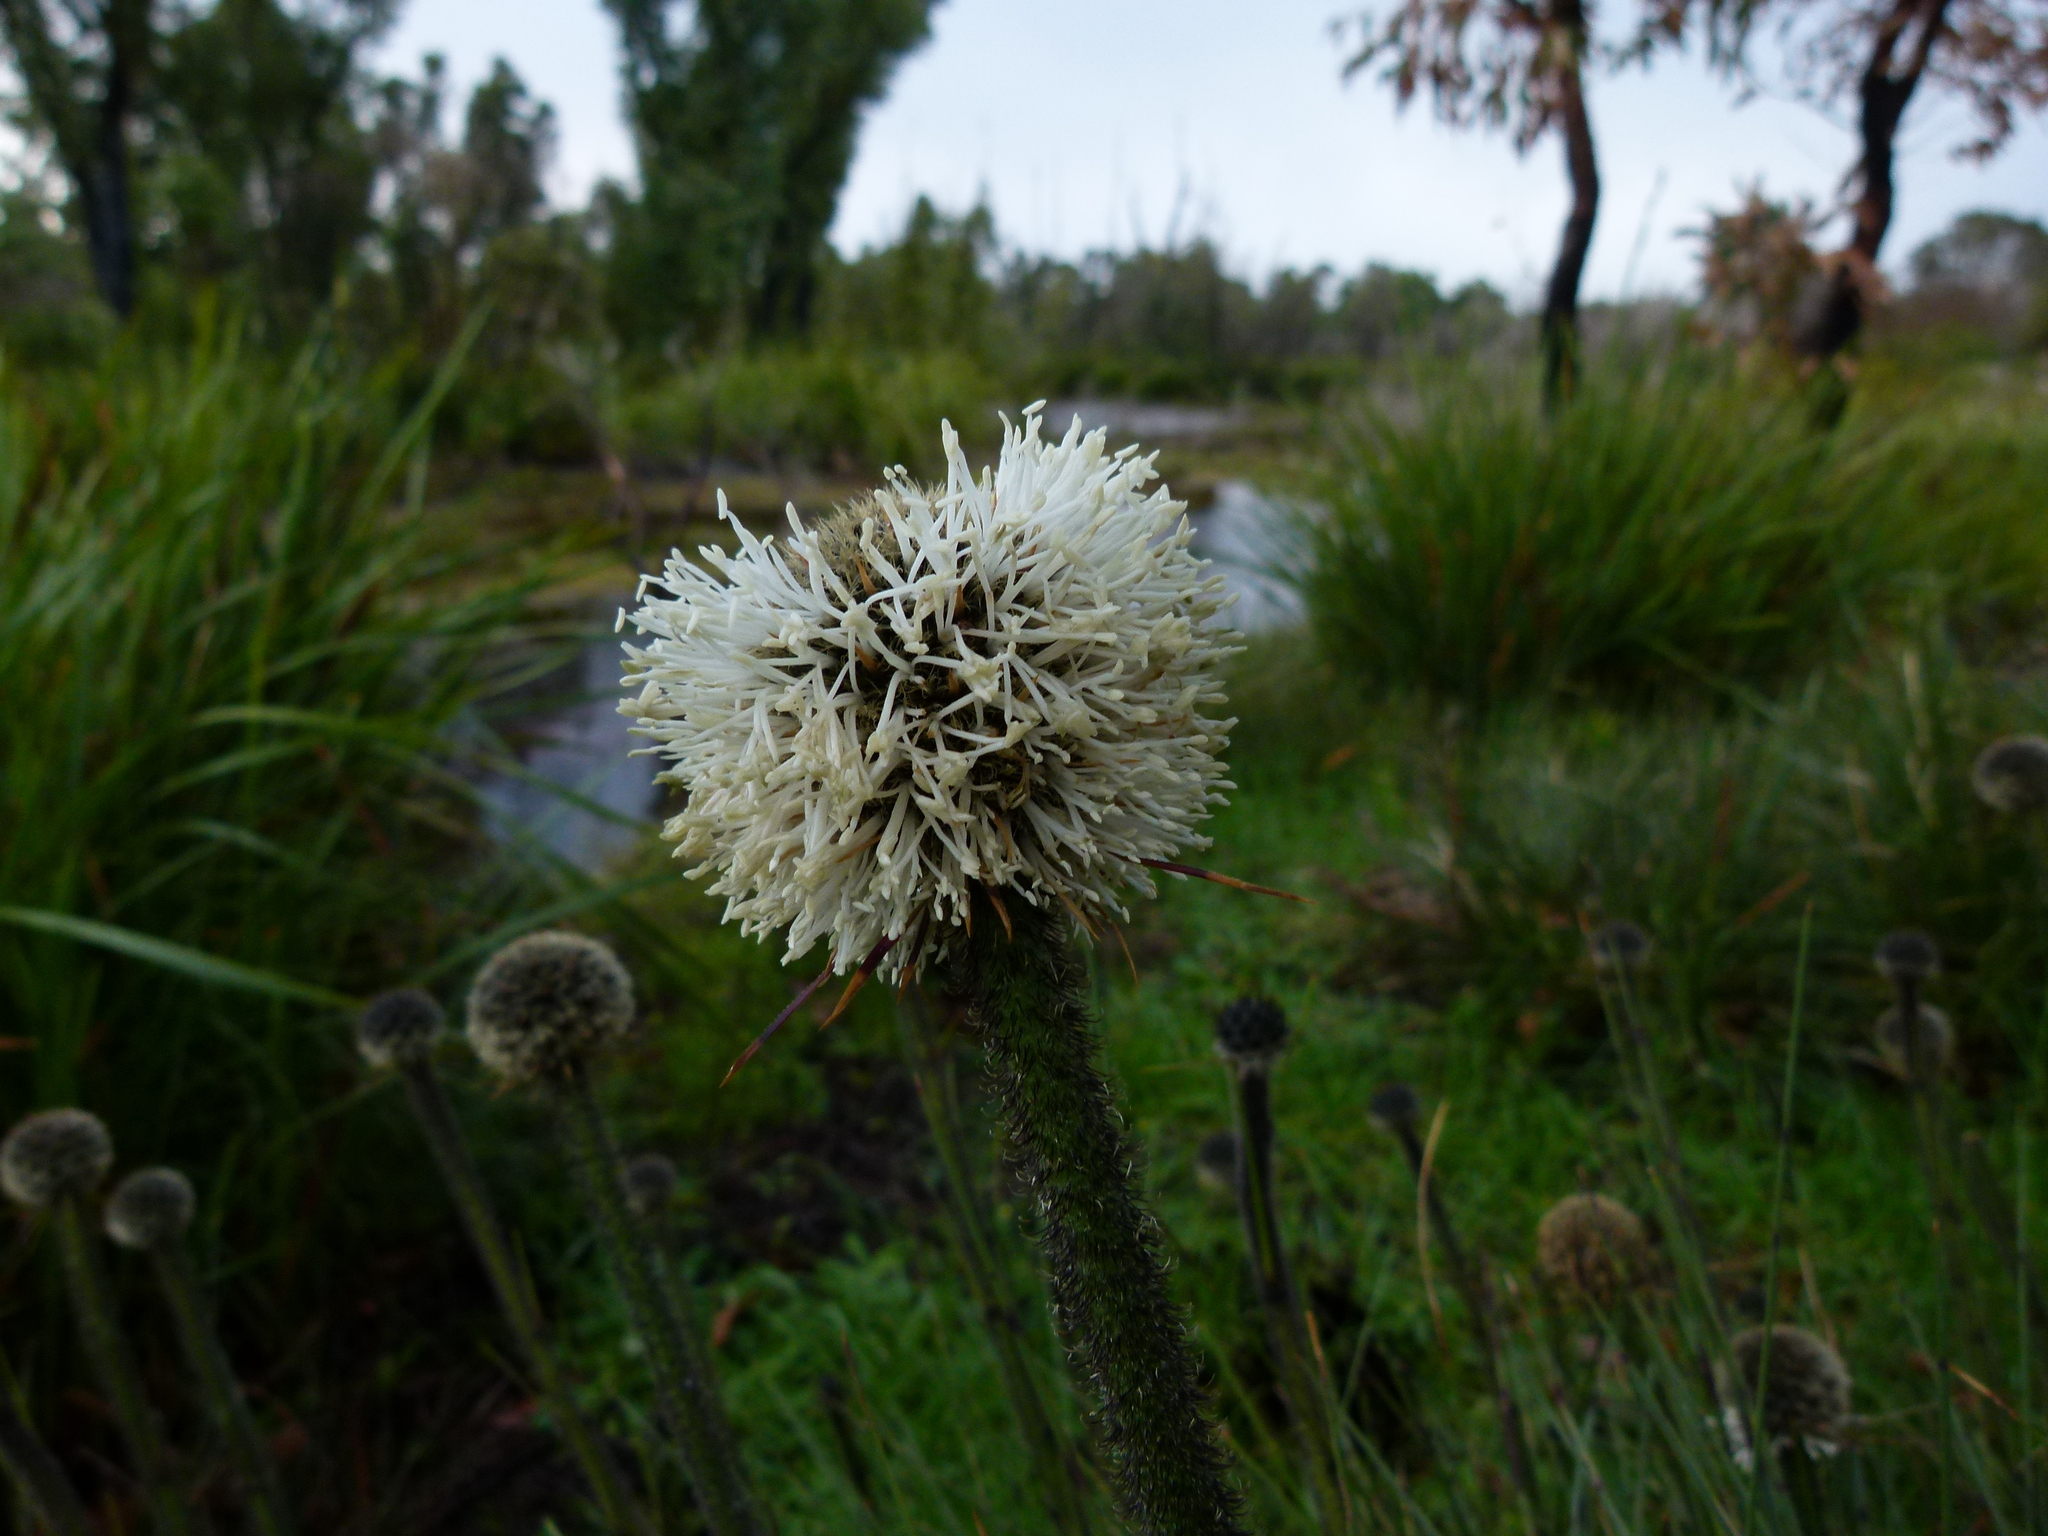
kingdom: Plantae
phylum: Tracheophyta
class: Liliopsida
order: Arecales
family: Dasypogonaceae
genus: Dasypogon
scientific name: Dasypogon bromeliifolius
